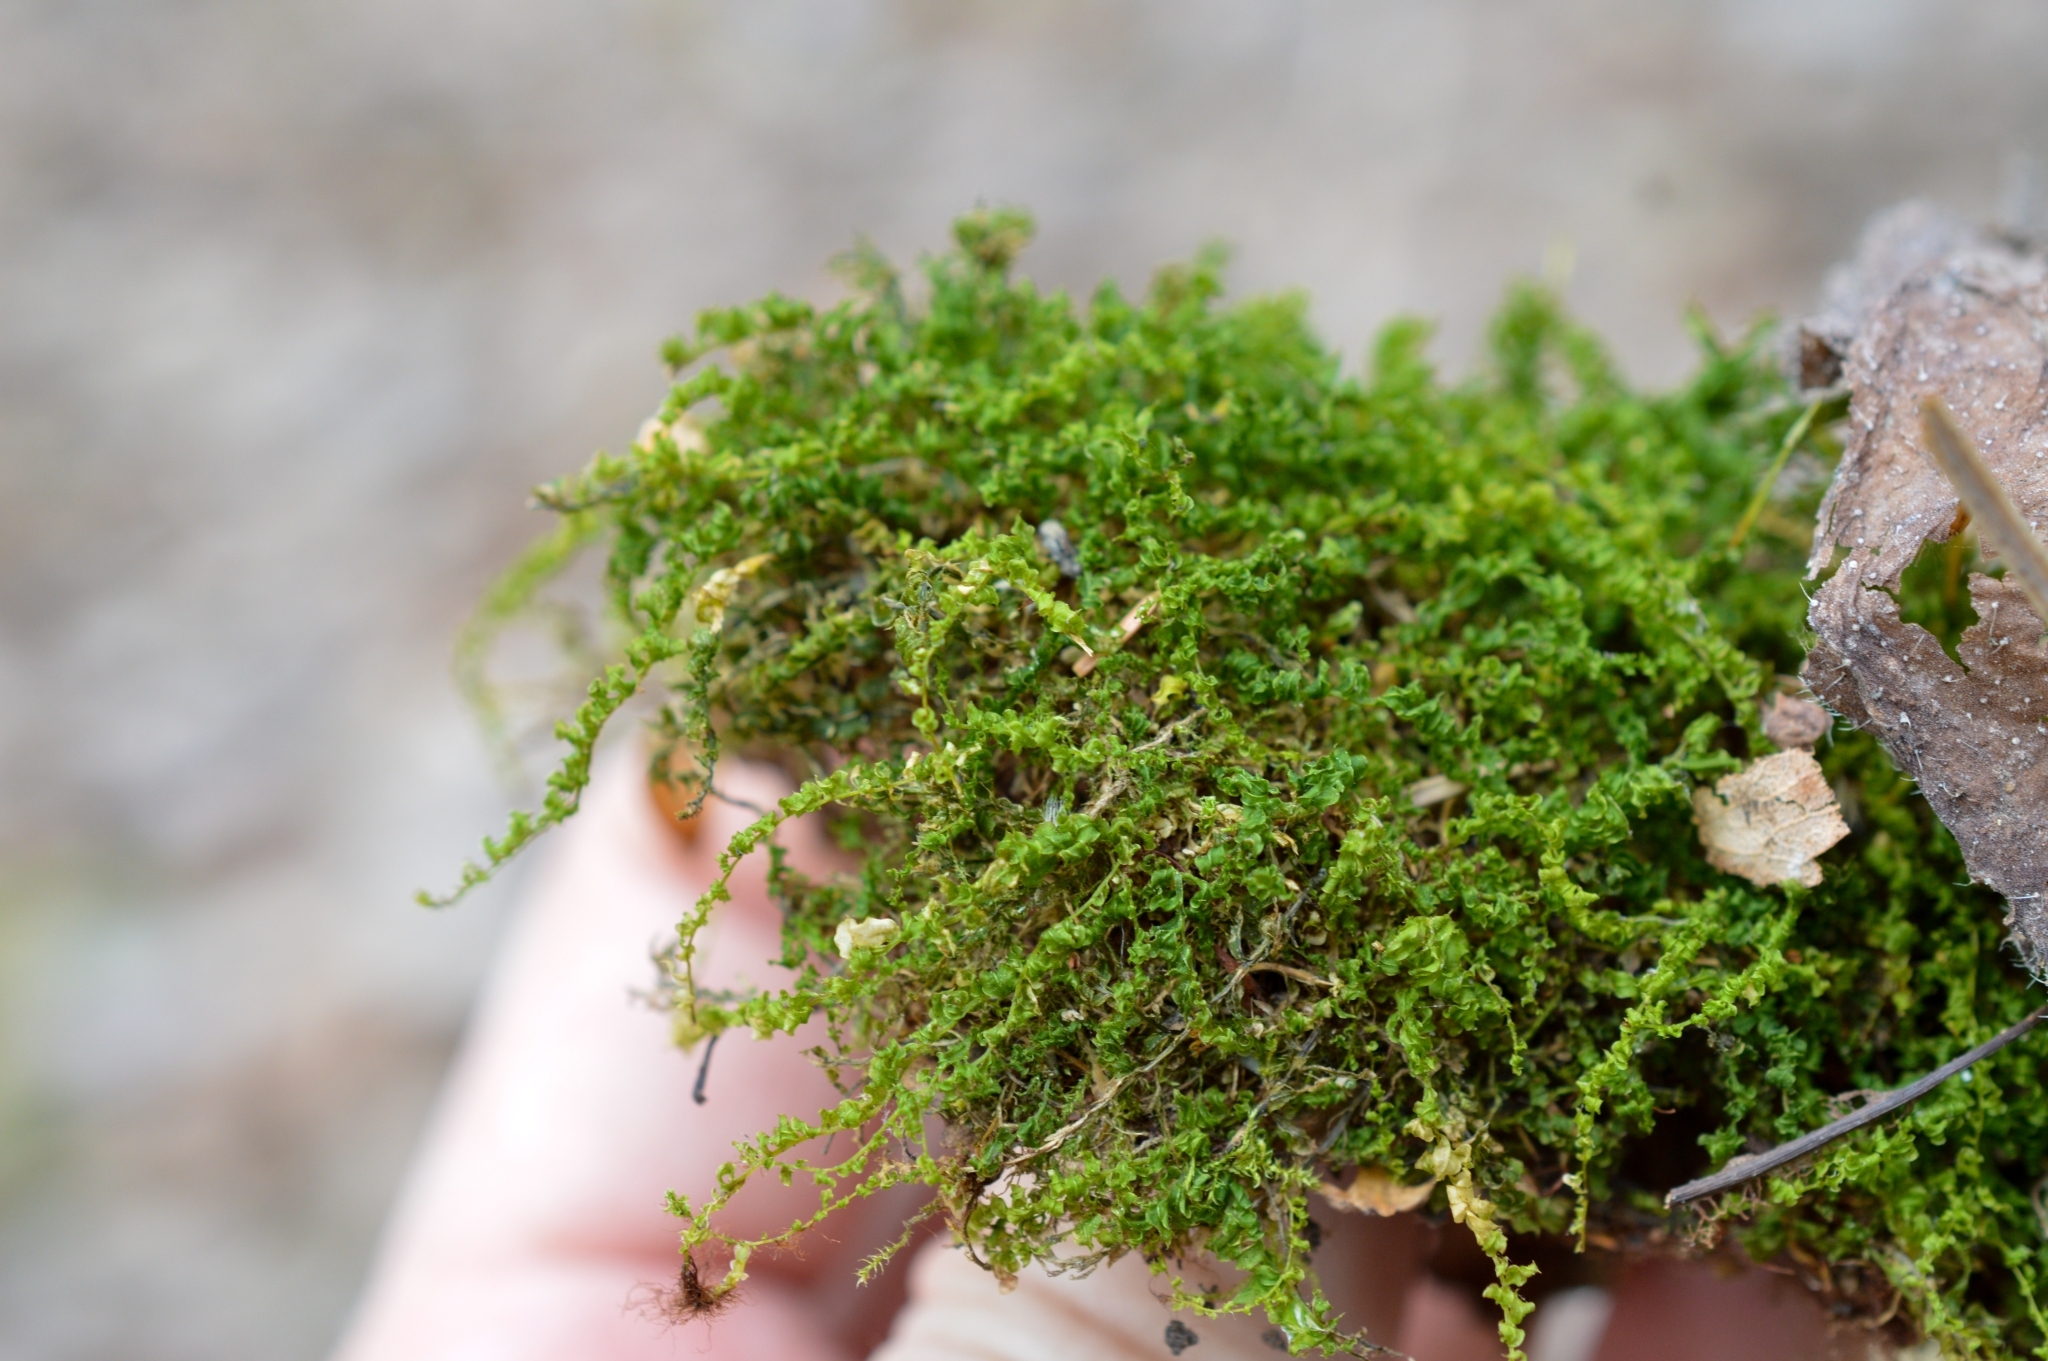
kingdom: Plantae
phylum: Bryophyta
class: Bryopsida
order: Bryales
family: Mniaceae
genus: Plagiomnium
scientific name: Plagiomnium
